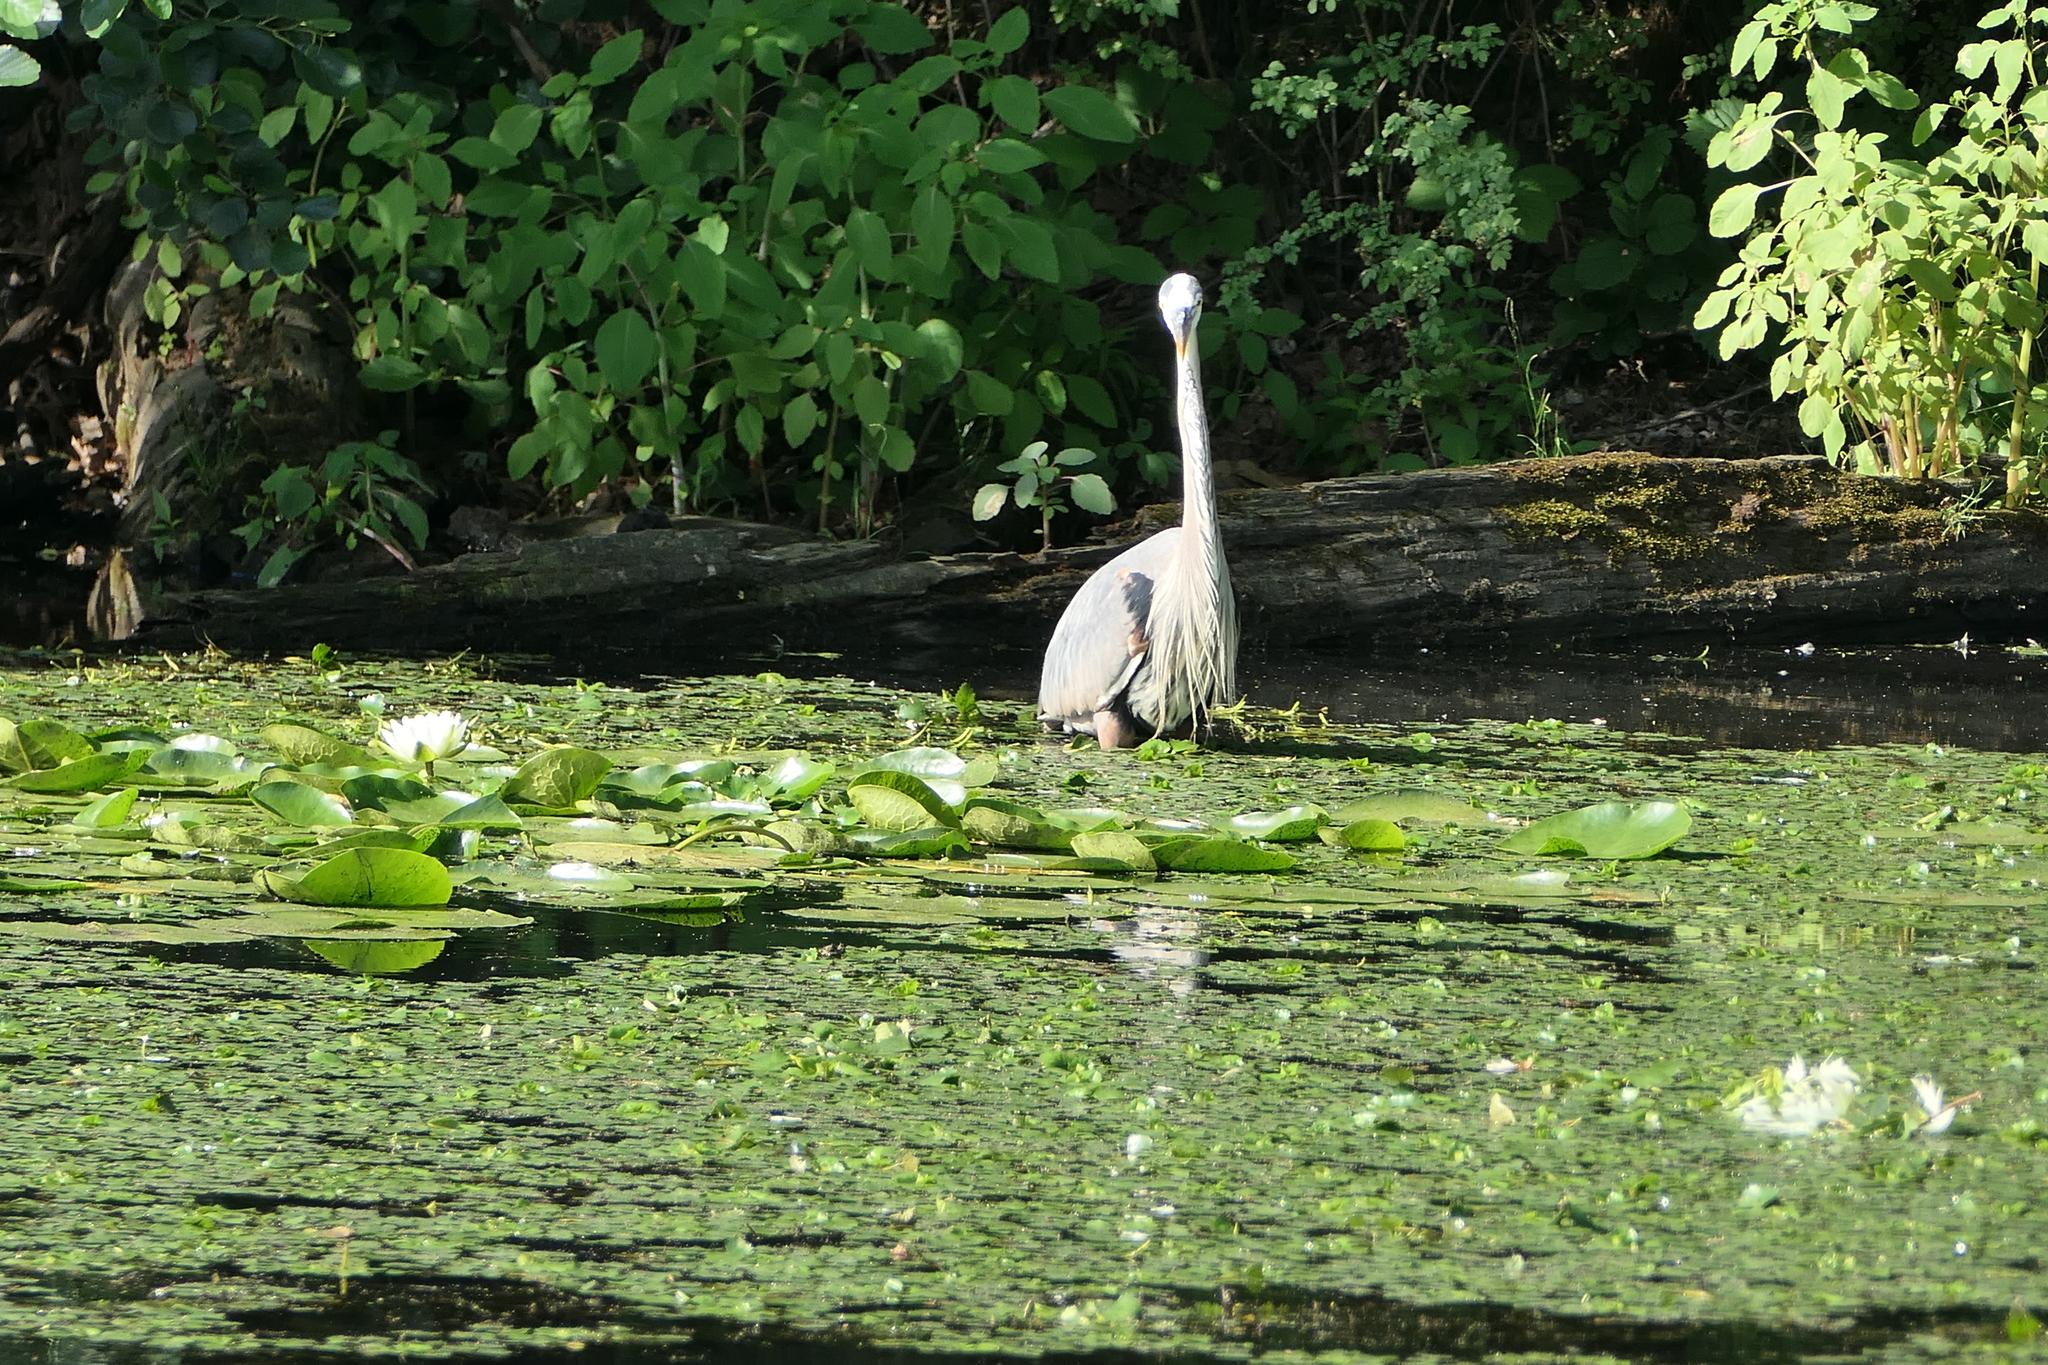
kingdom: Animalia
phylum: Chordata
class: Aves
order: Pelecaniformes
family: Ardeidae
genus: Ardea
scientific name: Ardea herodias
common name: Great blue heron
